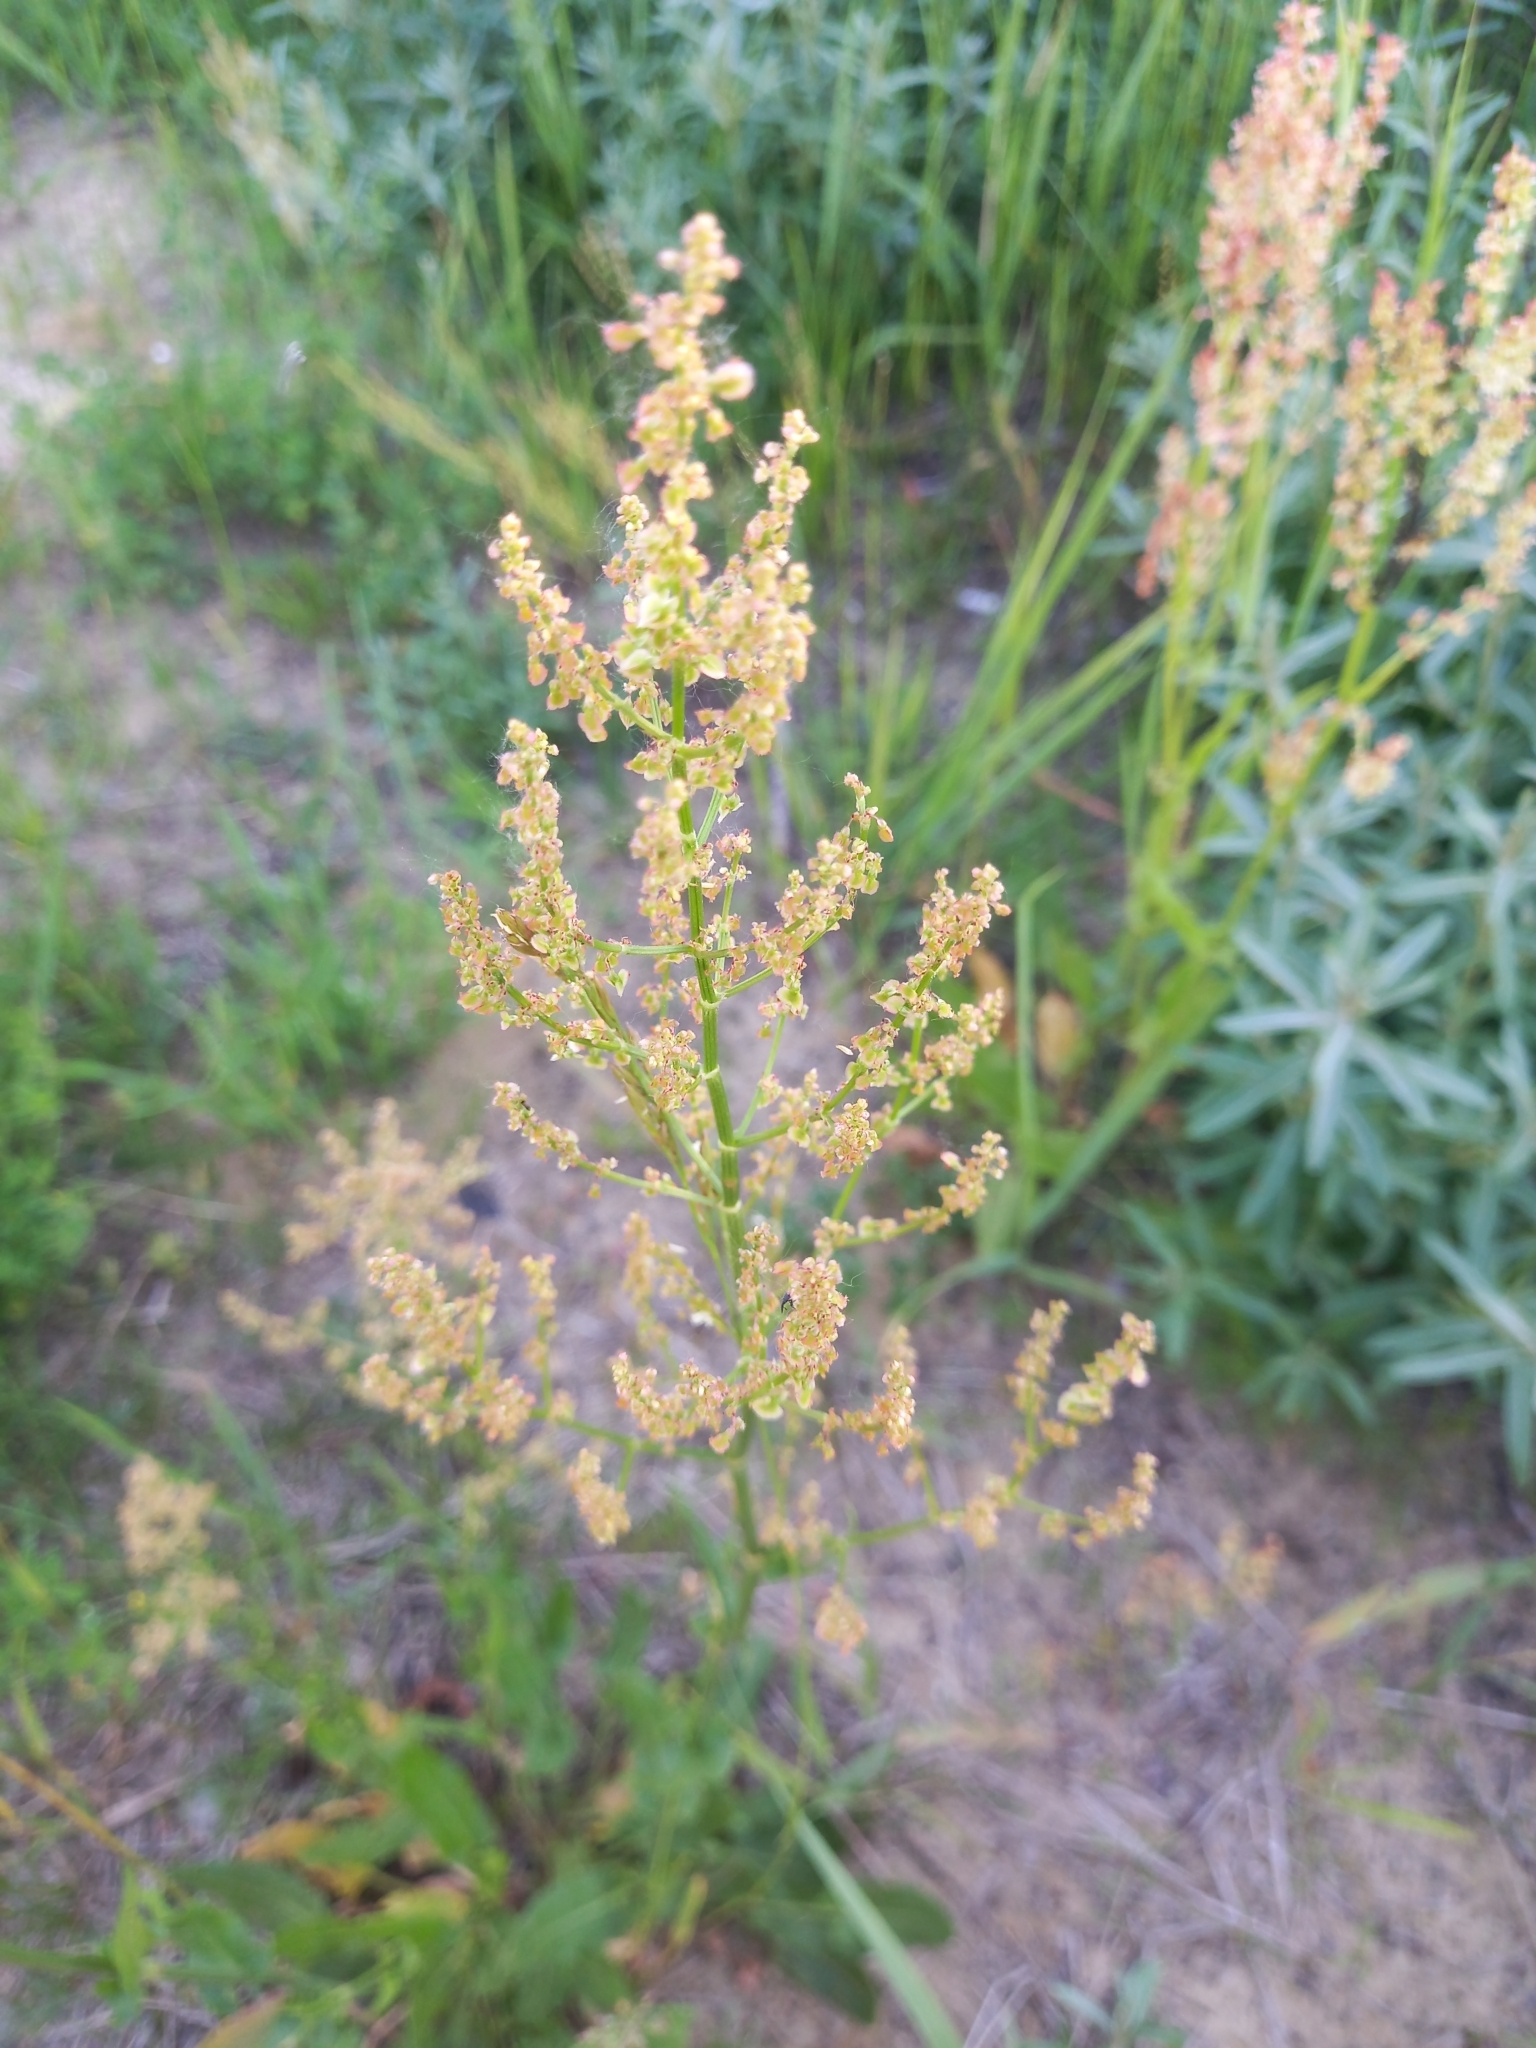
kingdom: Plantae
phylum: Tracheophyta
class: Magnoliopsida
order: Caryophyllales
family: Polygonaceae
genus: Rumex
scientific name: Rumex thyrsiflorus
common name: Garden sorrel
